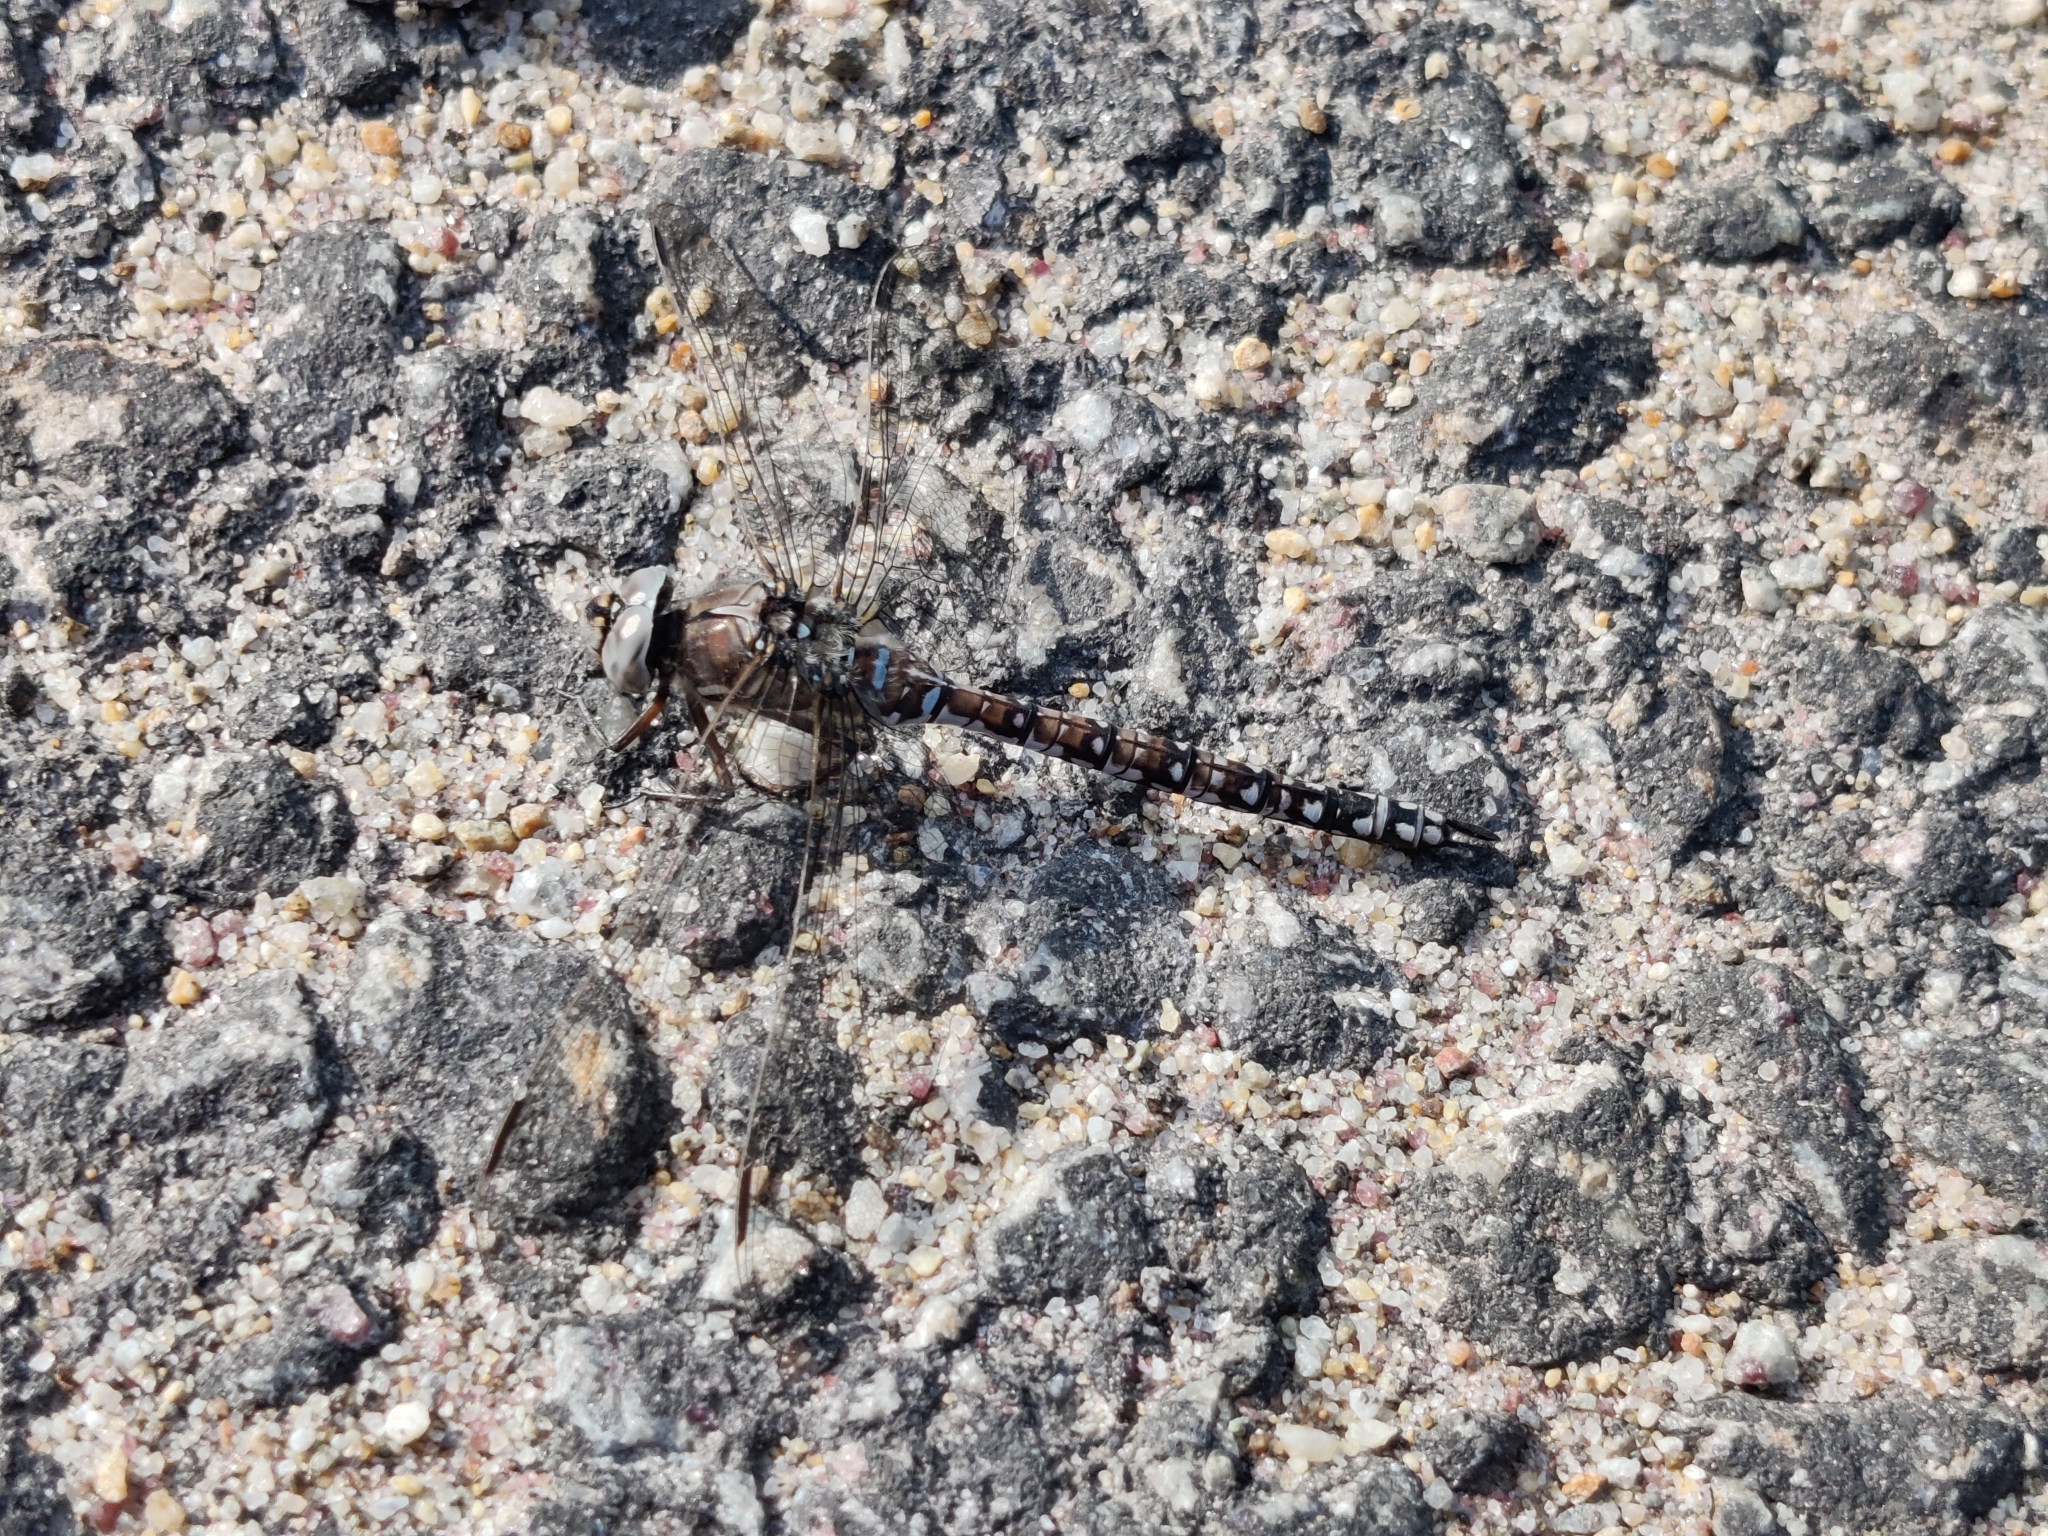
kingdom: Animalia
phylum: Arthropoda
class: Insecta
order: Odonata
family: Aeshnidae
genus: Aeshna
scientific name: Aeshna caerulea
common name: Azure hawker
